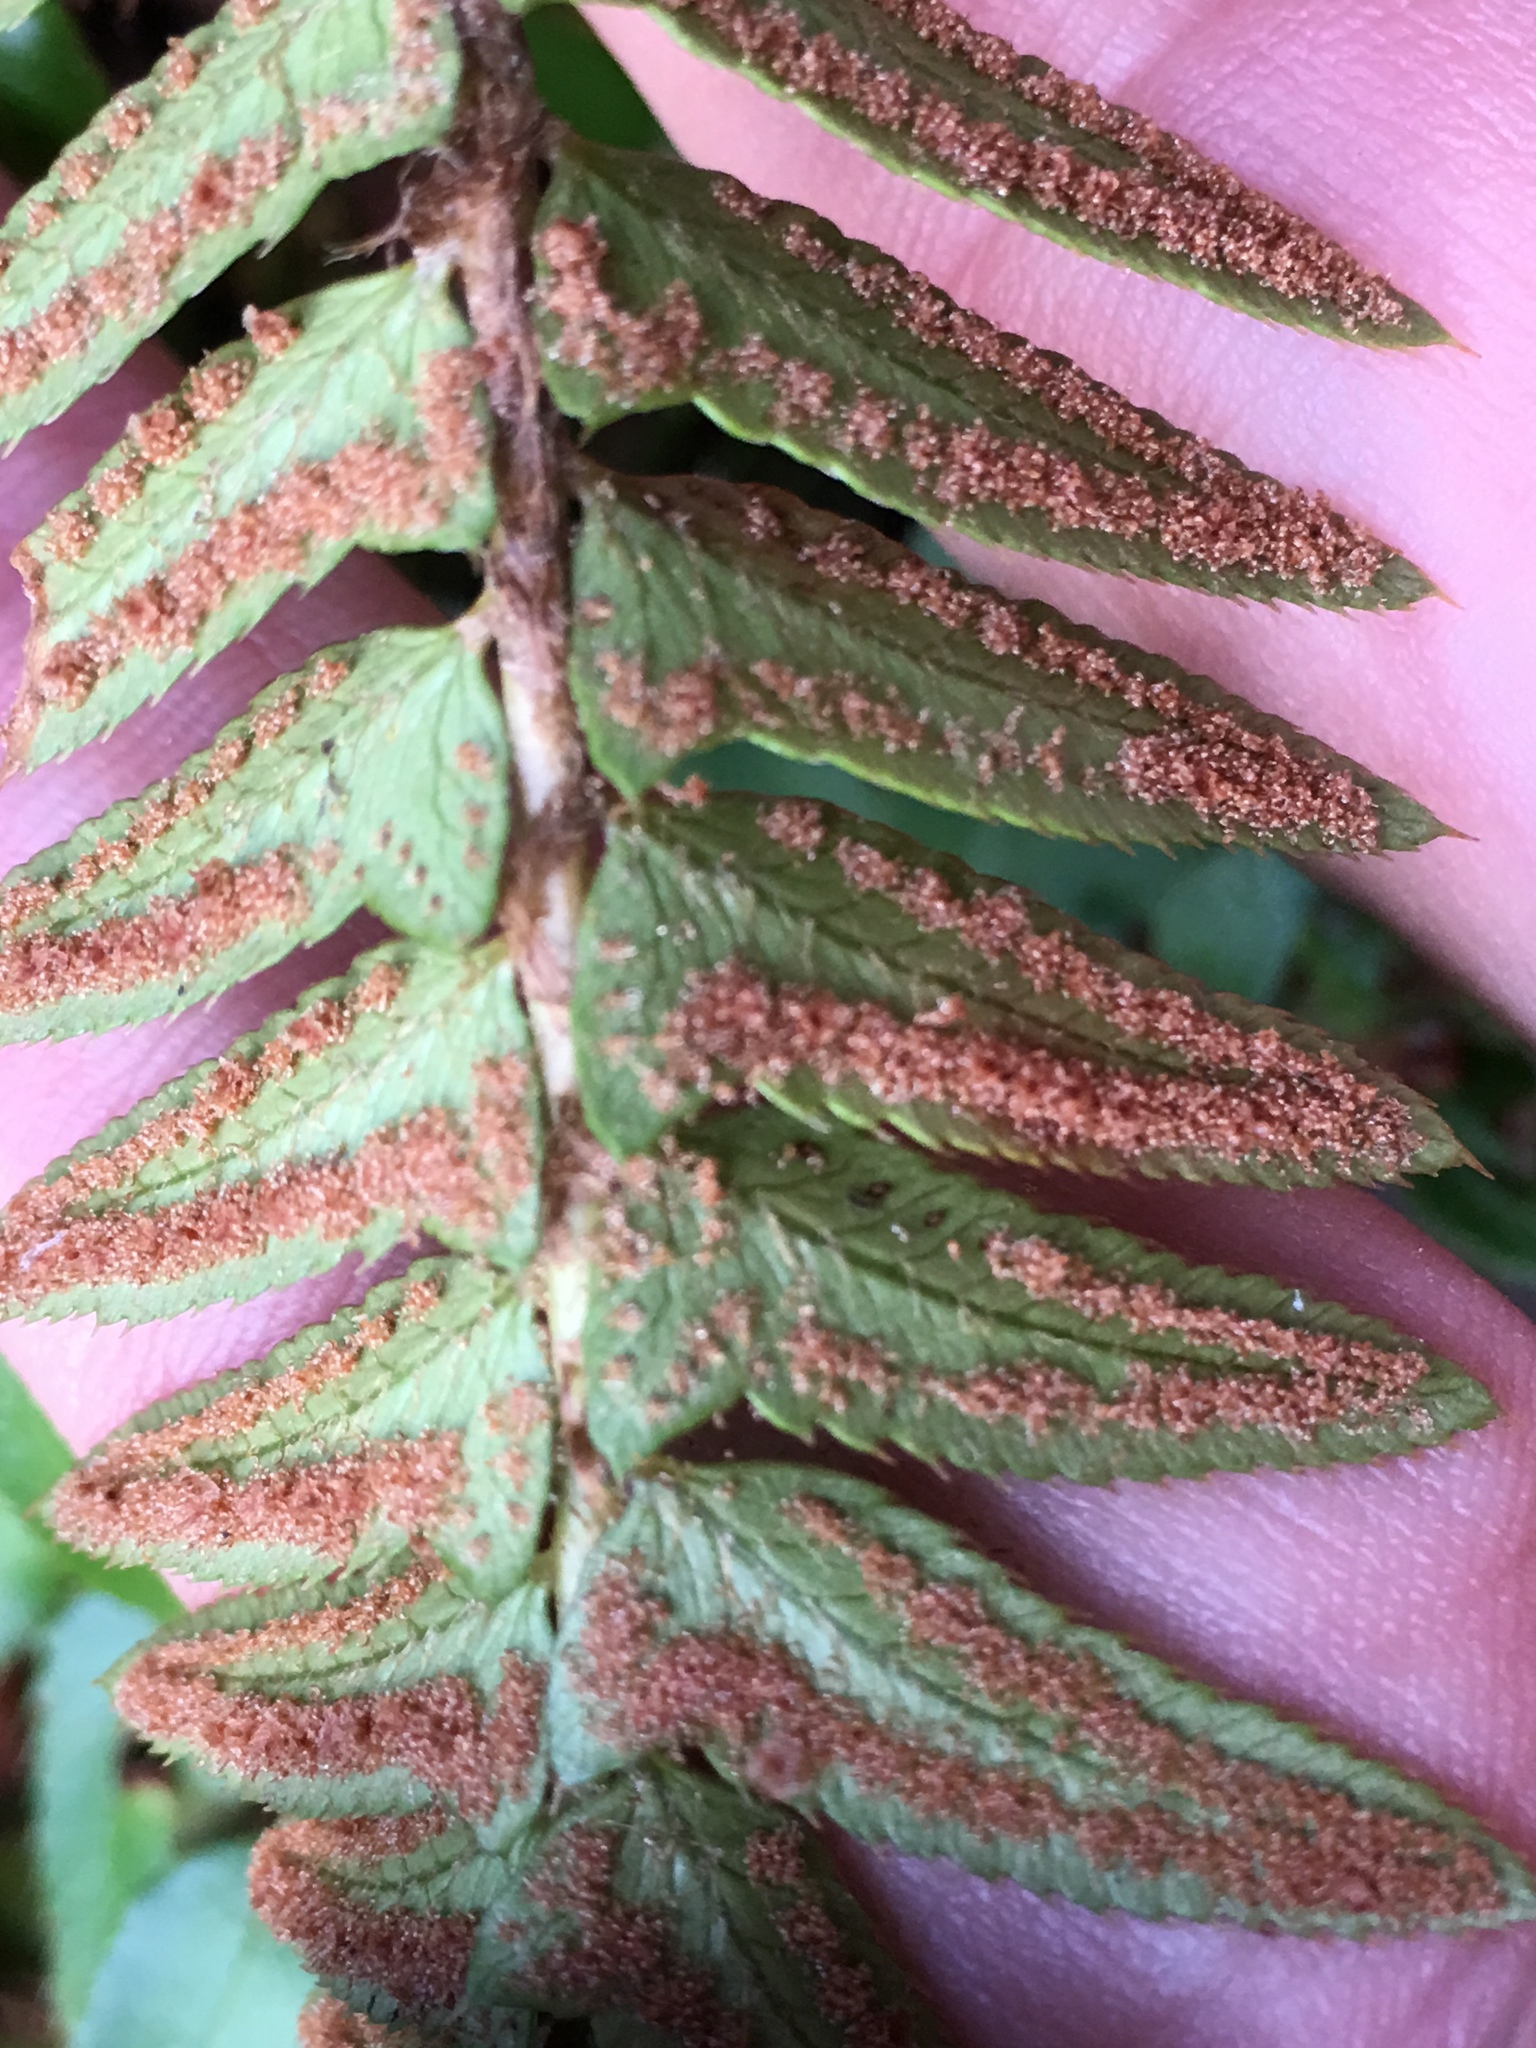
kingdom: Plantae
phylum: Tracheophyta
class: Polypodiopsida
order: Polypodiales
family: Dryopteridaceae
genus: Polystichum
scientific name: Polystichum munitum
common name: Western sword-fern
